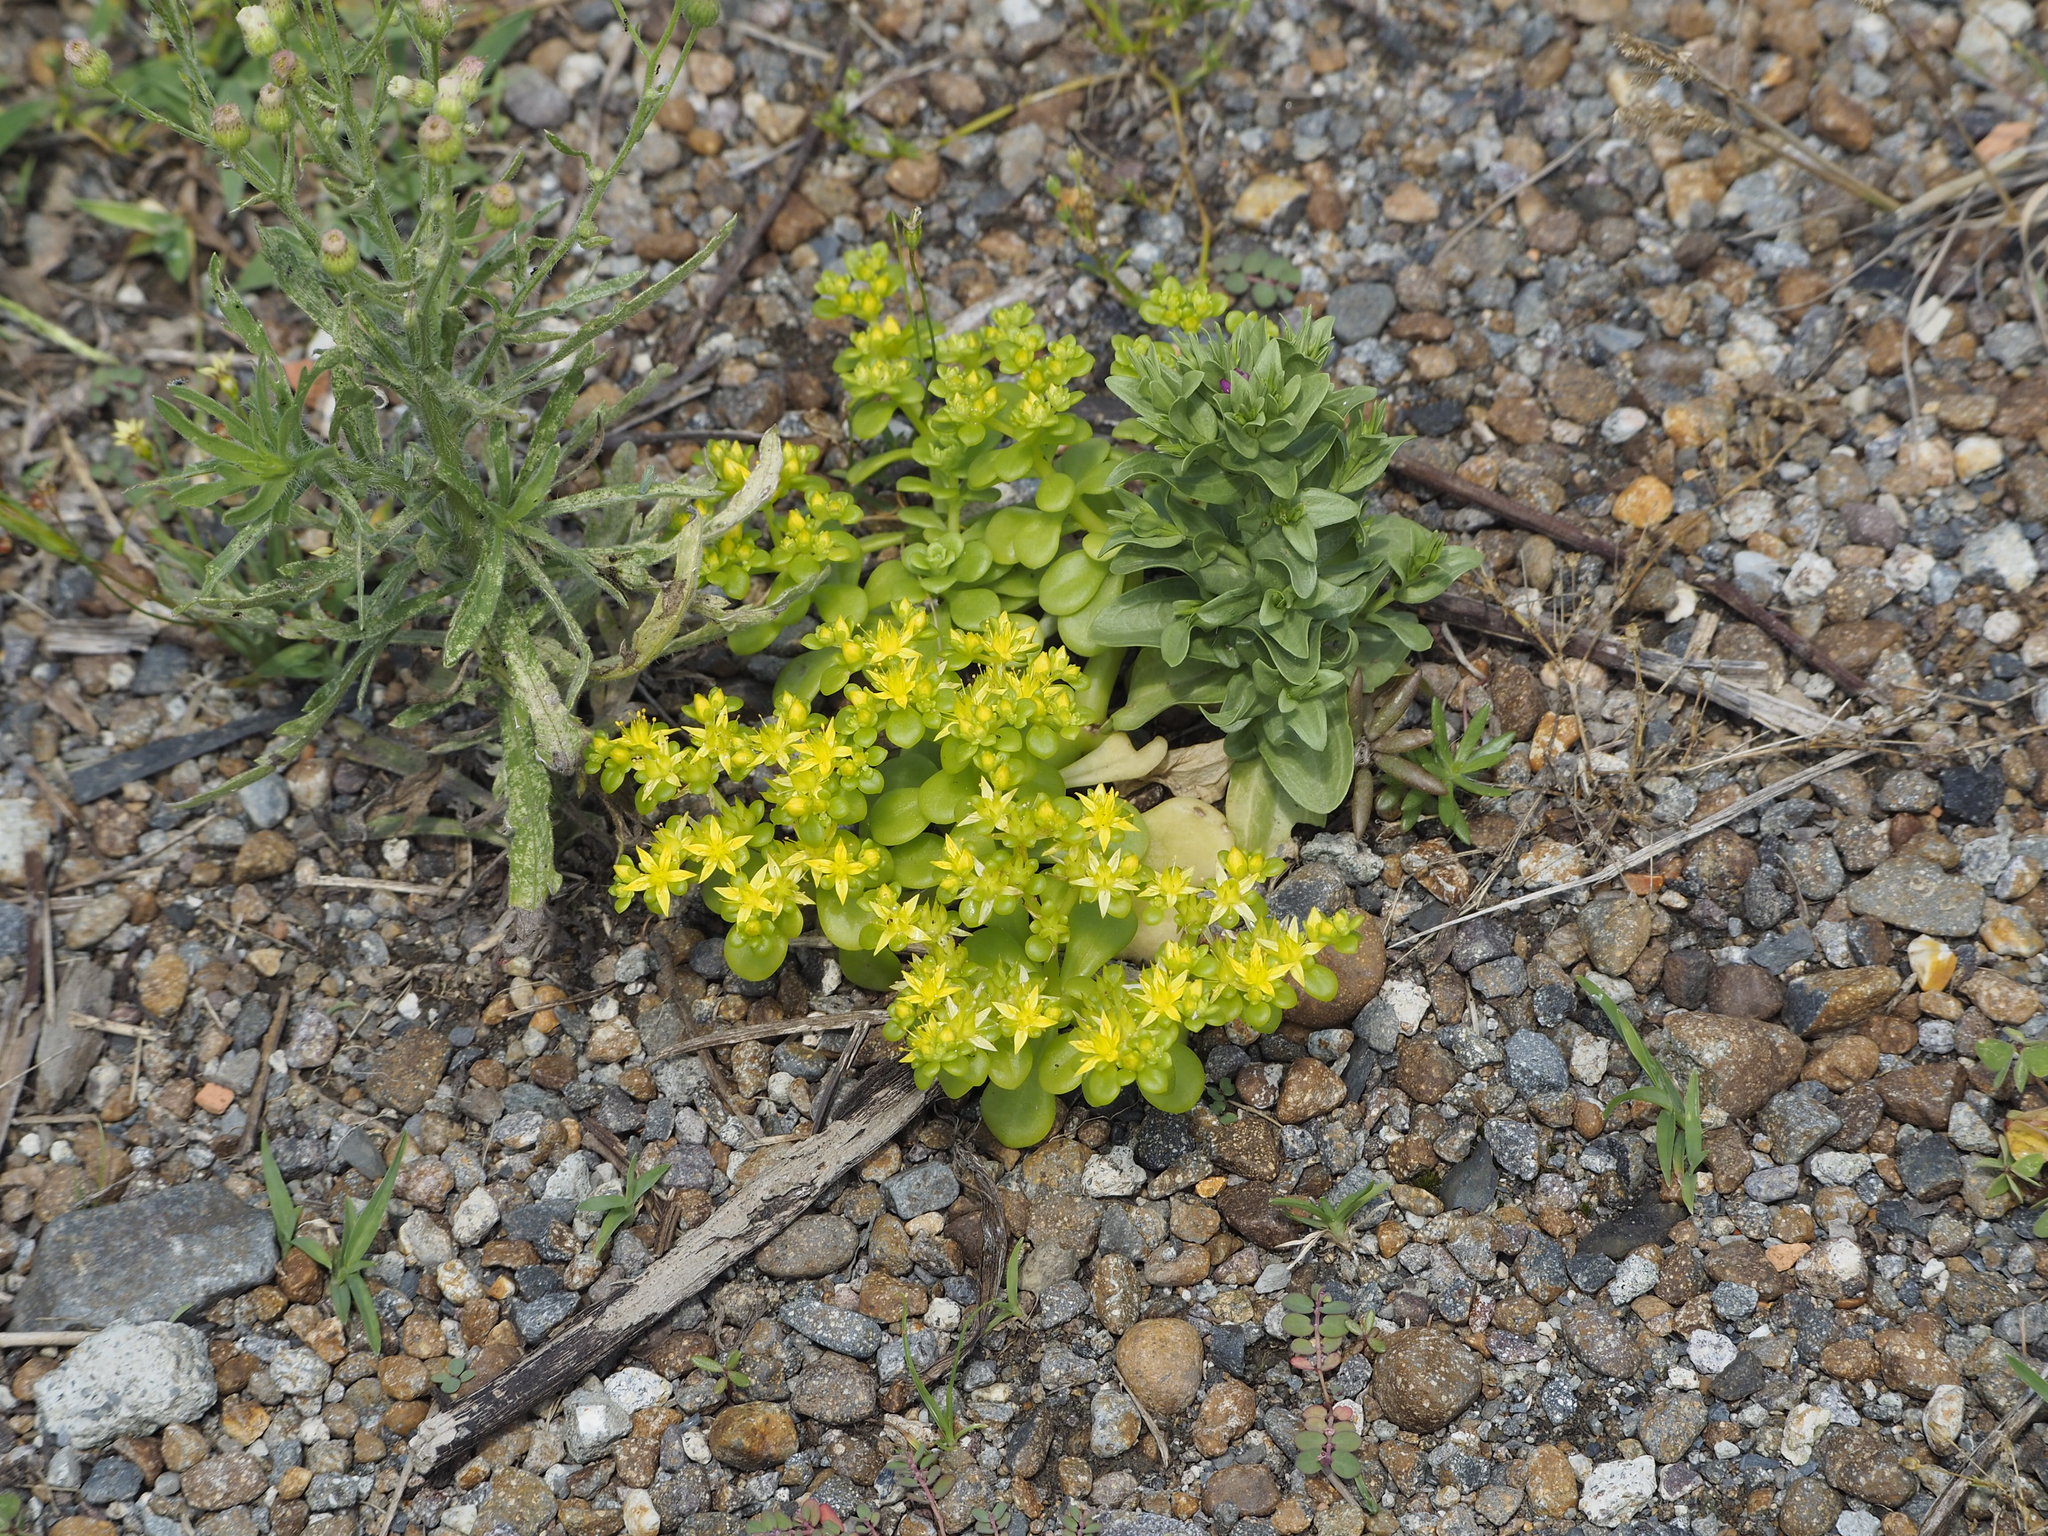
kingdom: Plantae
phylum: Tracheophyta
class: Magnoliopsida
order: Saxifragales
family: Crassulaceae
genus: Sedum
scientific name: Sedum formosanum
